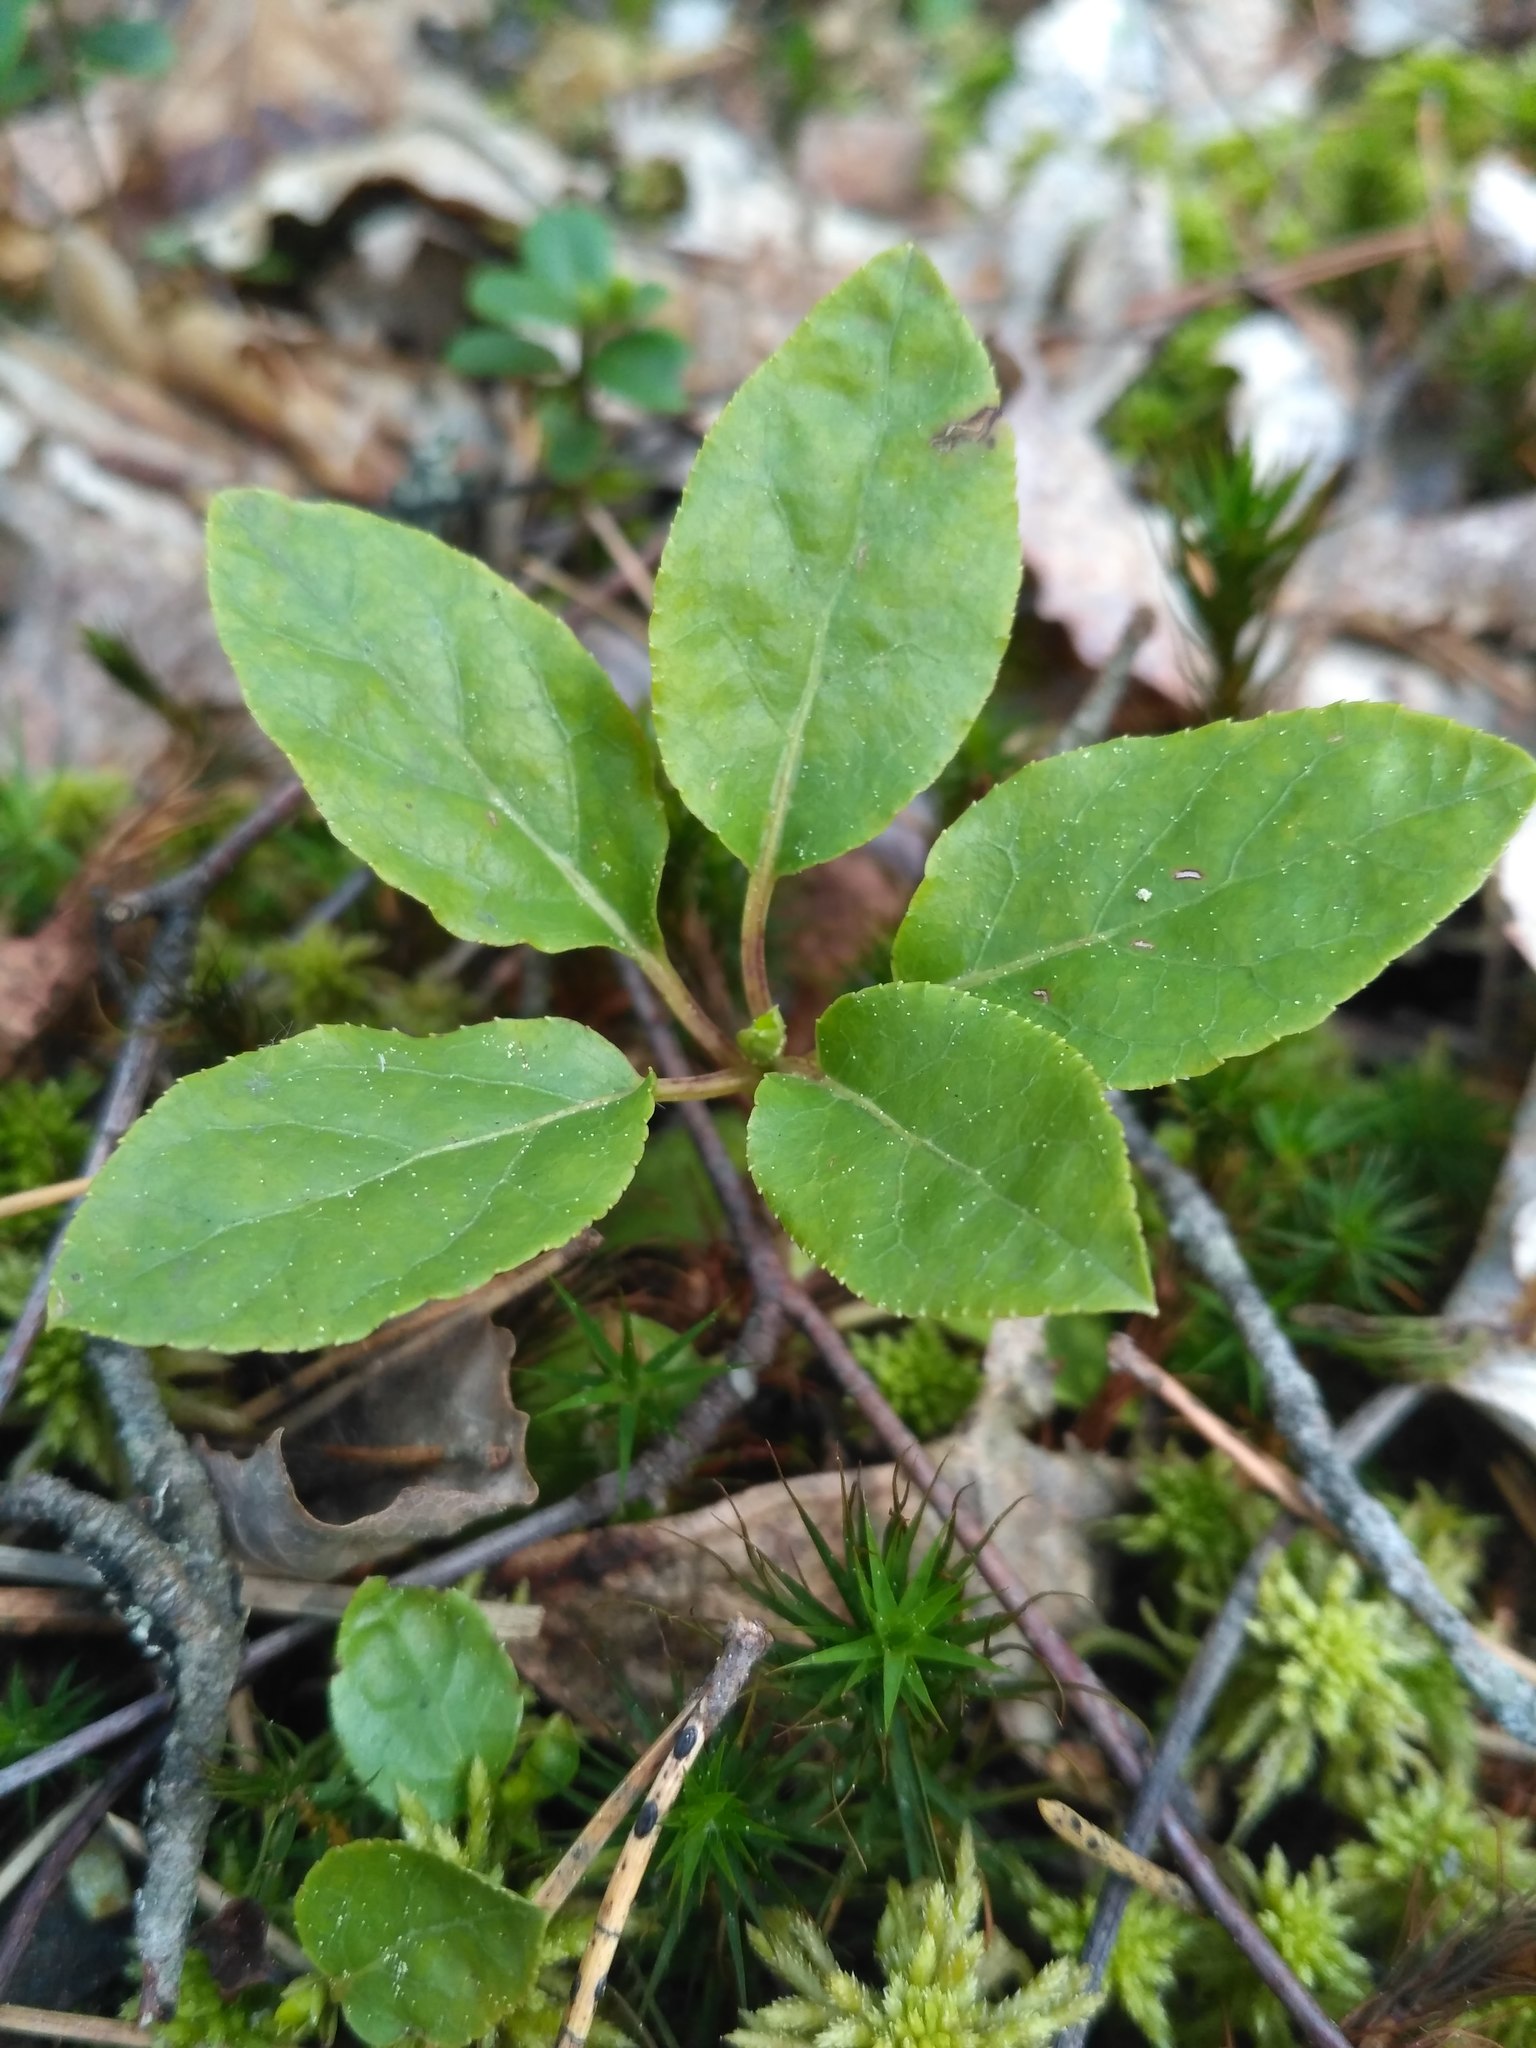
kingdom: Plantae
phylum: Tracheophyta
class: Magnoliopsida
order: Ericales
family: Ericaceae
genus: Orthilia
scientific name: Orthilia secunda
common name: One-sided orthilia
